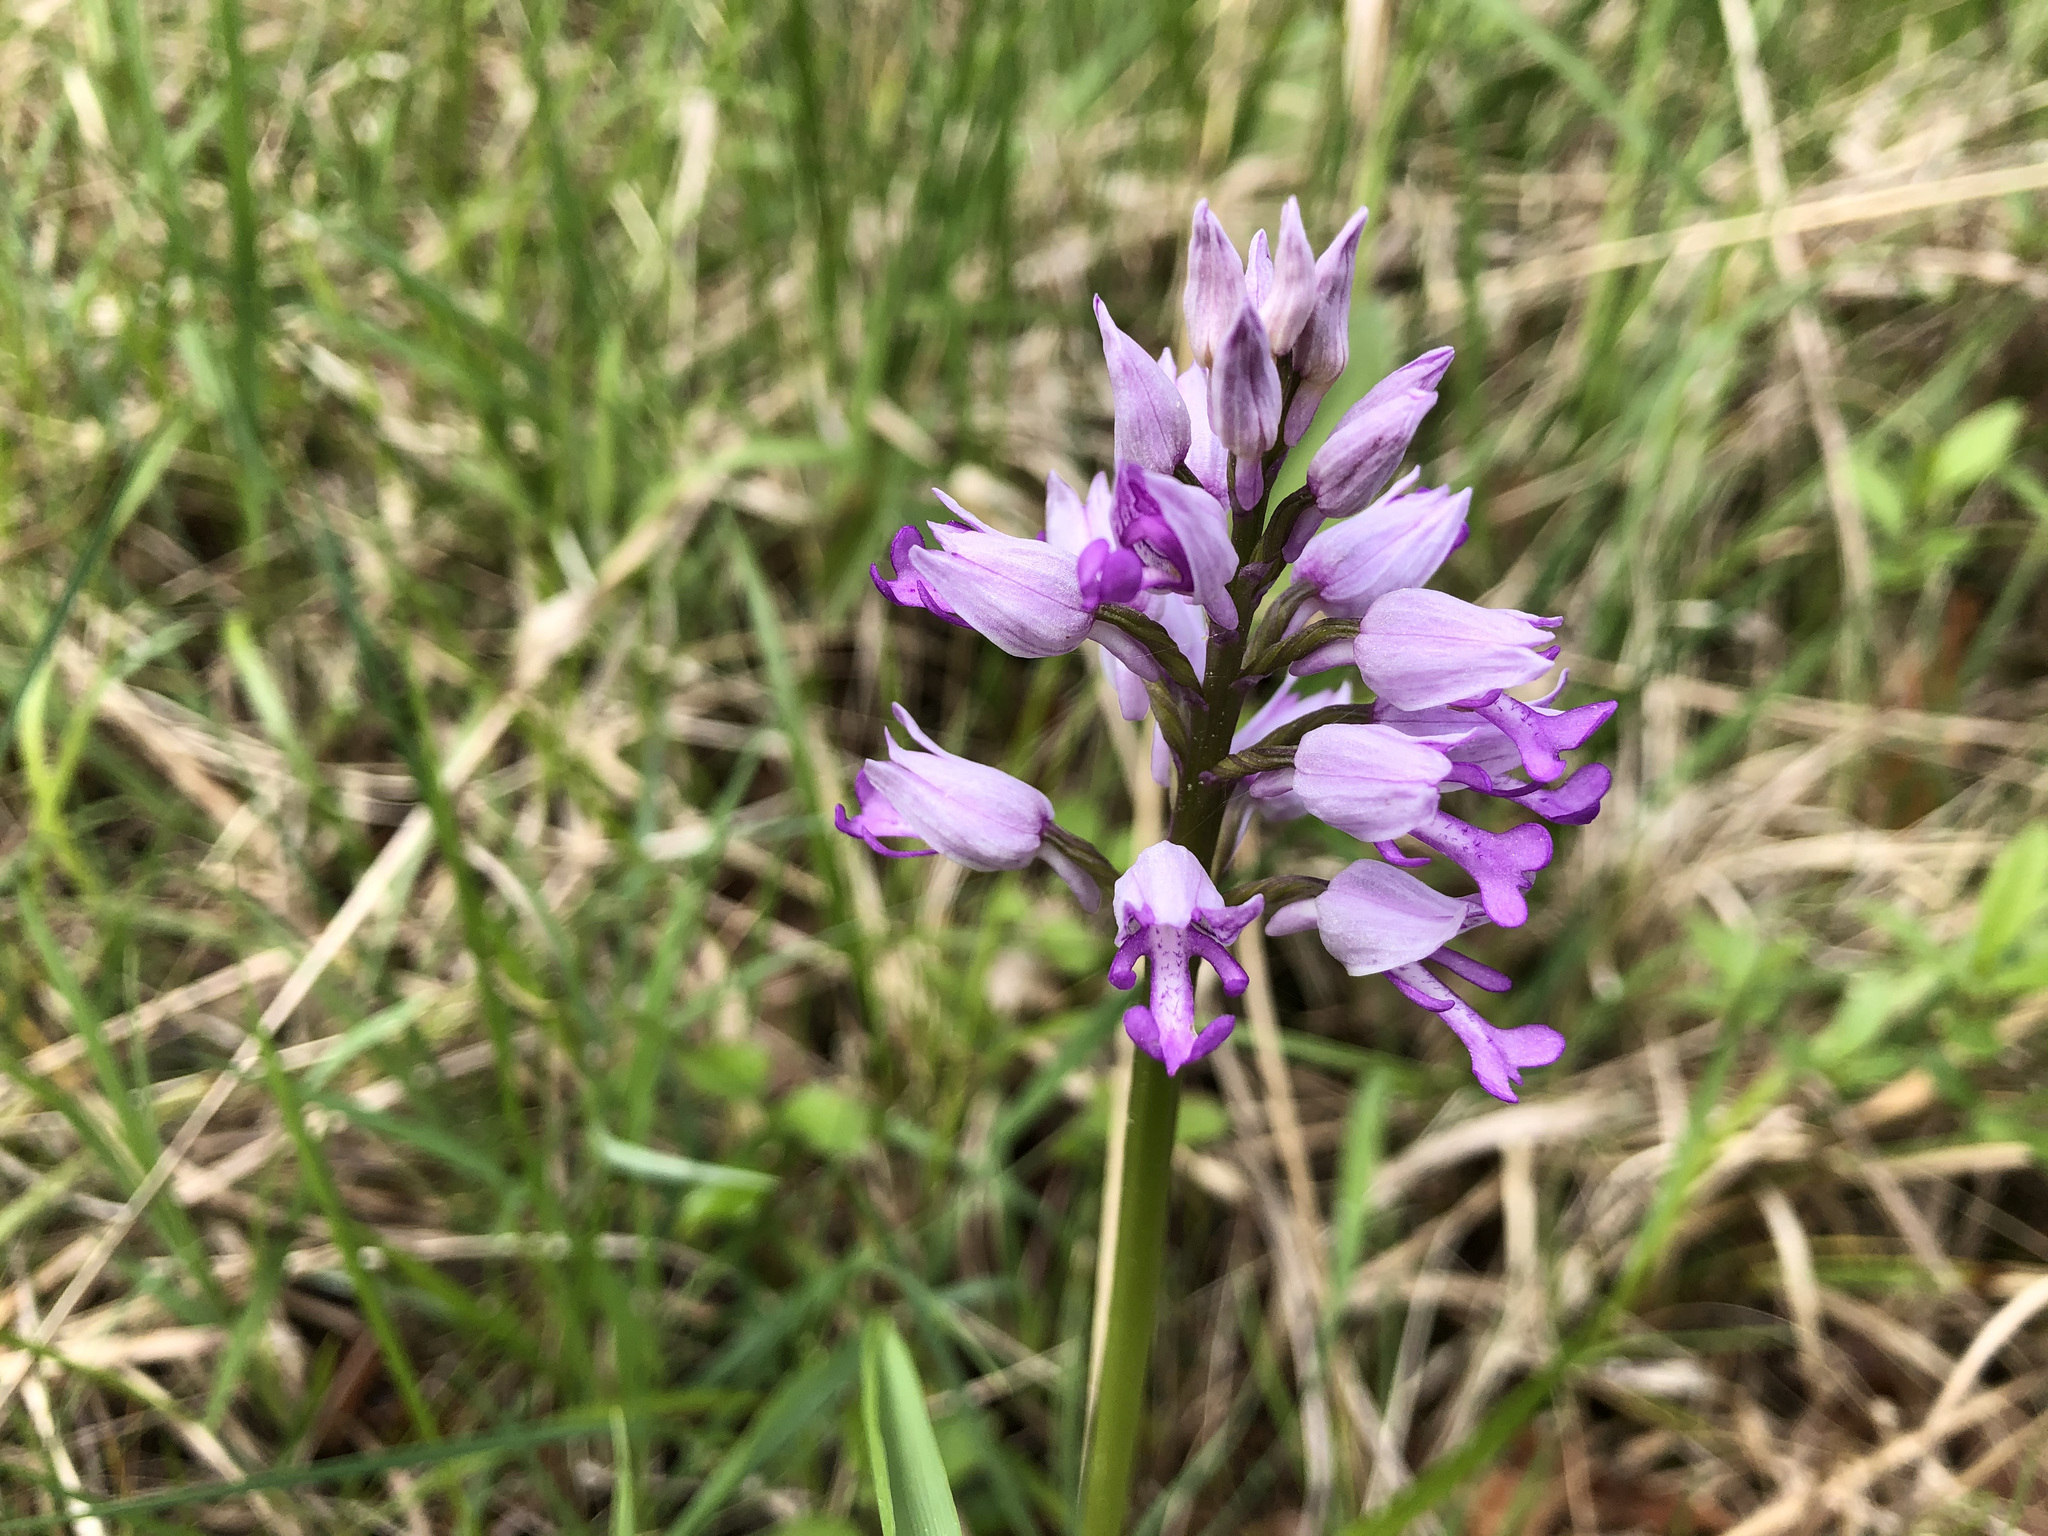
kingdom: Plantae
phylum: Tracheophyta
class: Liliopsida
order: Asparagales
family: Orchidaceae
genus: Orchis
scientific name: Orchis militaris
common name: Military orchid
